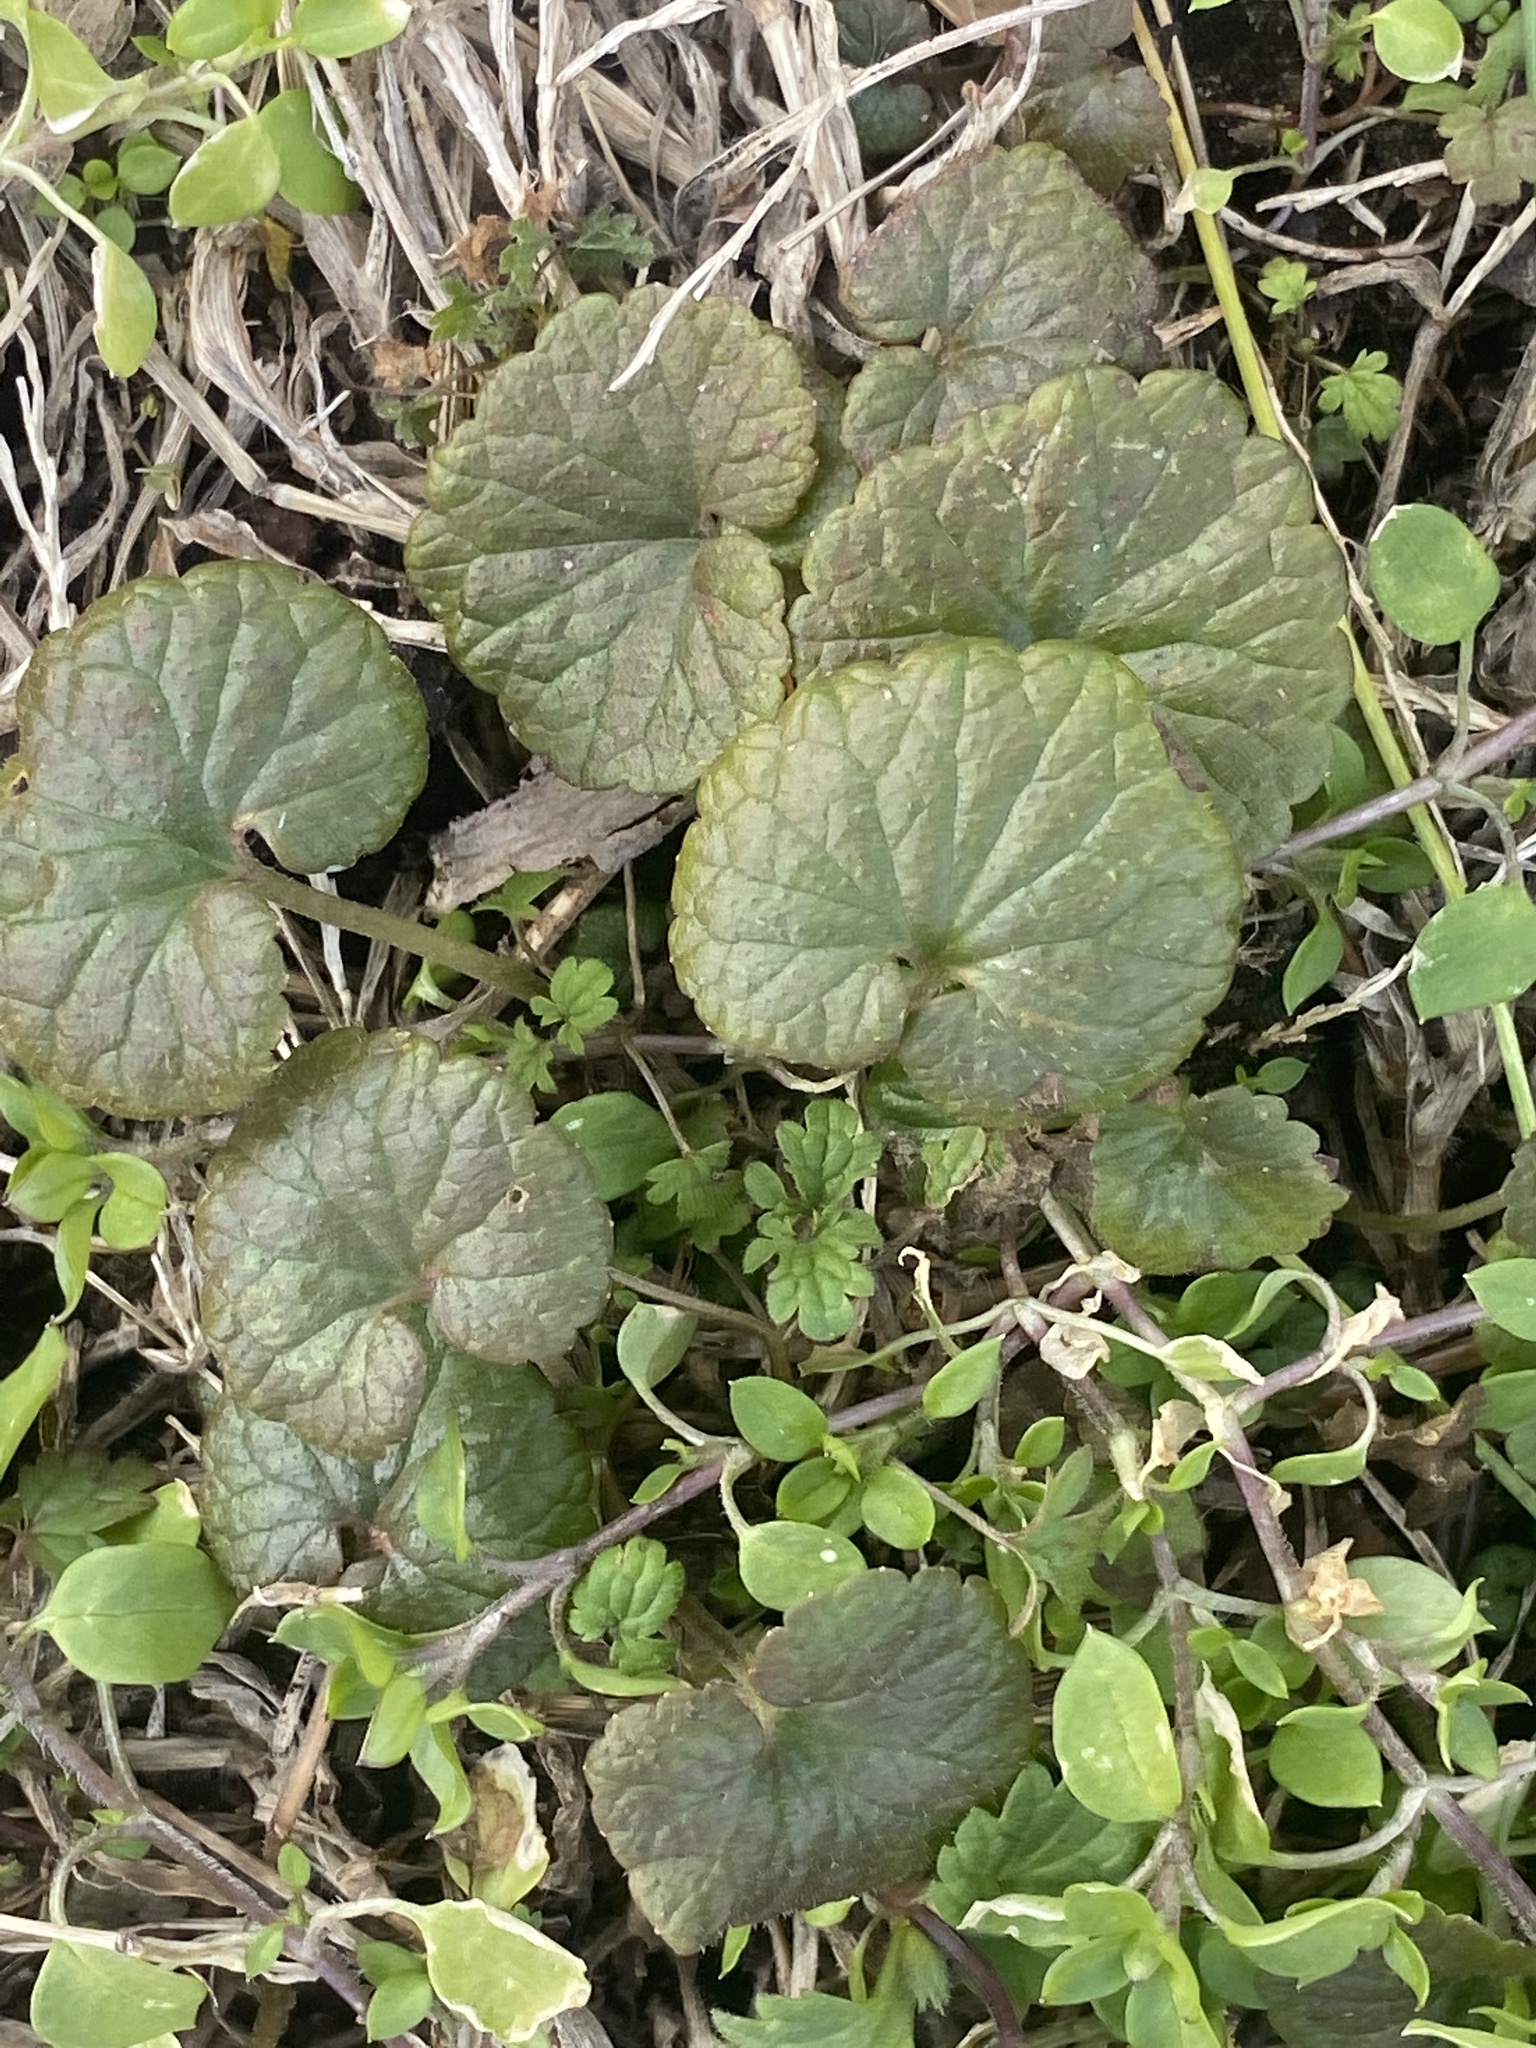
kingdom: Plantae
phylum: Tracheophyta
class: Magnoliopsida
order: Lamiales
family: Lamiaceae
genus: Glechoma
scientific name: Glechoma hederacea
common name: Ground ivy
